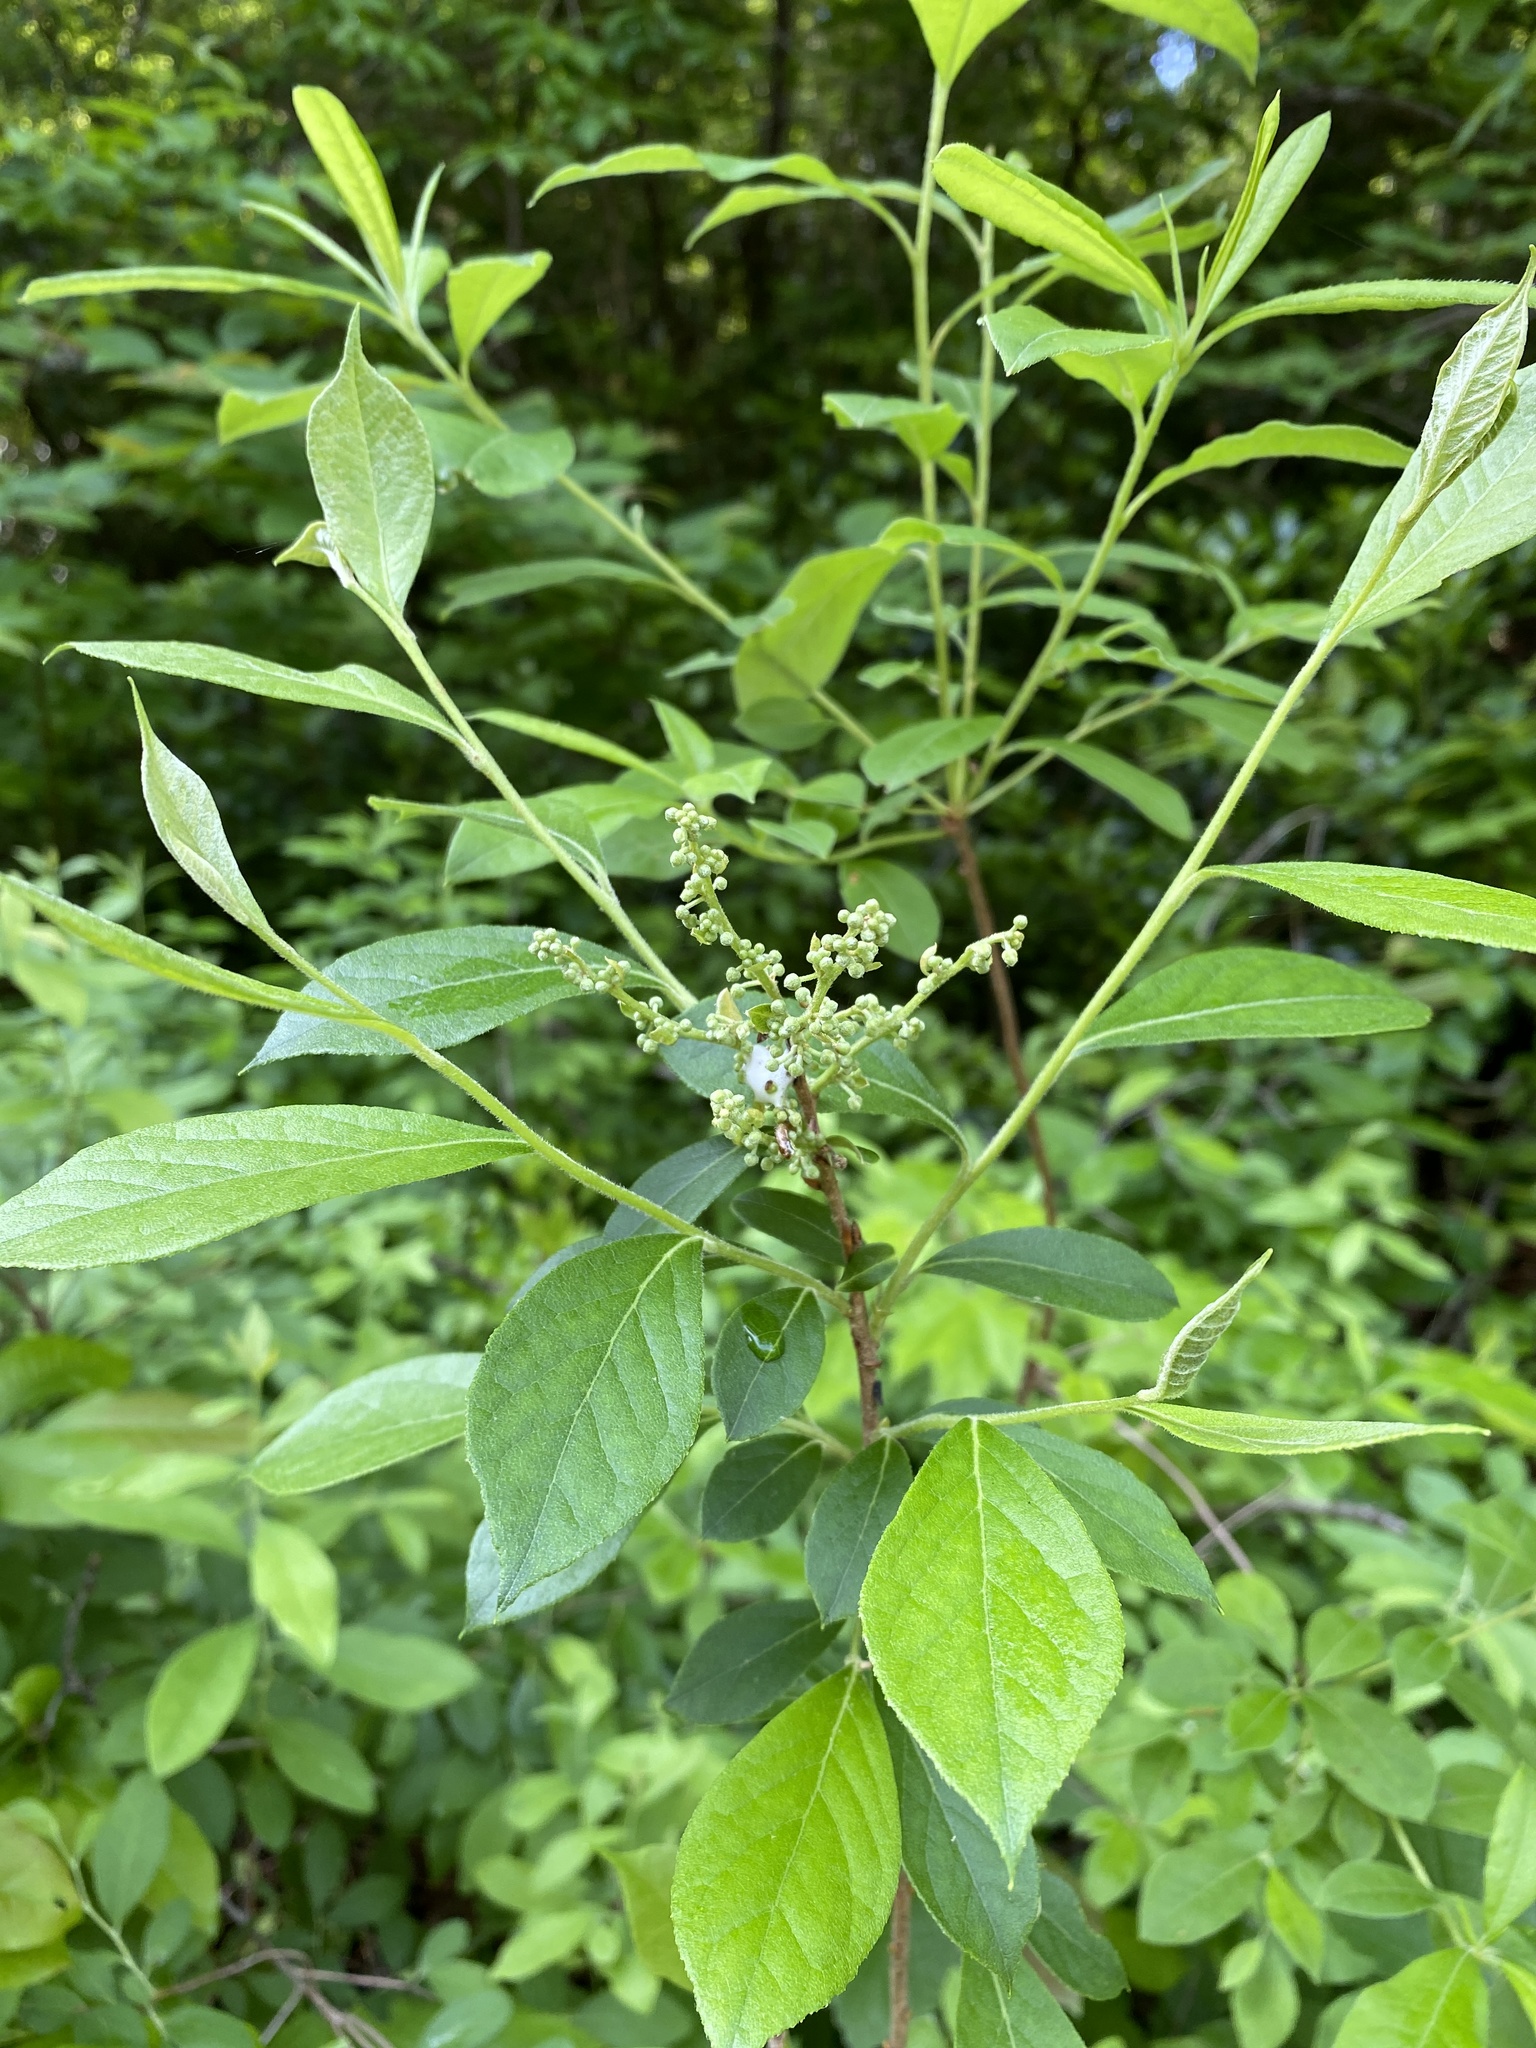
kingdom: Plantae
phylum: Tracheophyta
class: Magnoliopsida
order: Ericales
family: Ericaceae
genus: Lyonia
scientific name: Lyonia ligustrina
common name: Maleberry
